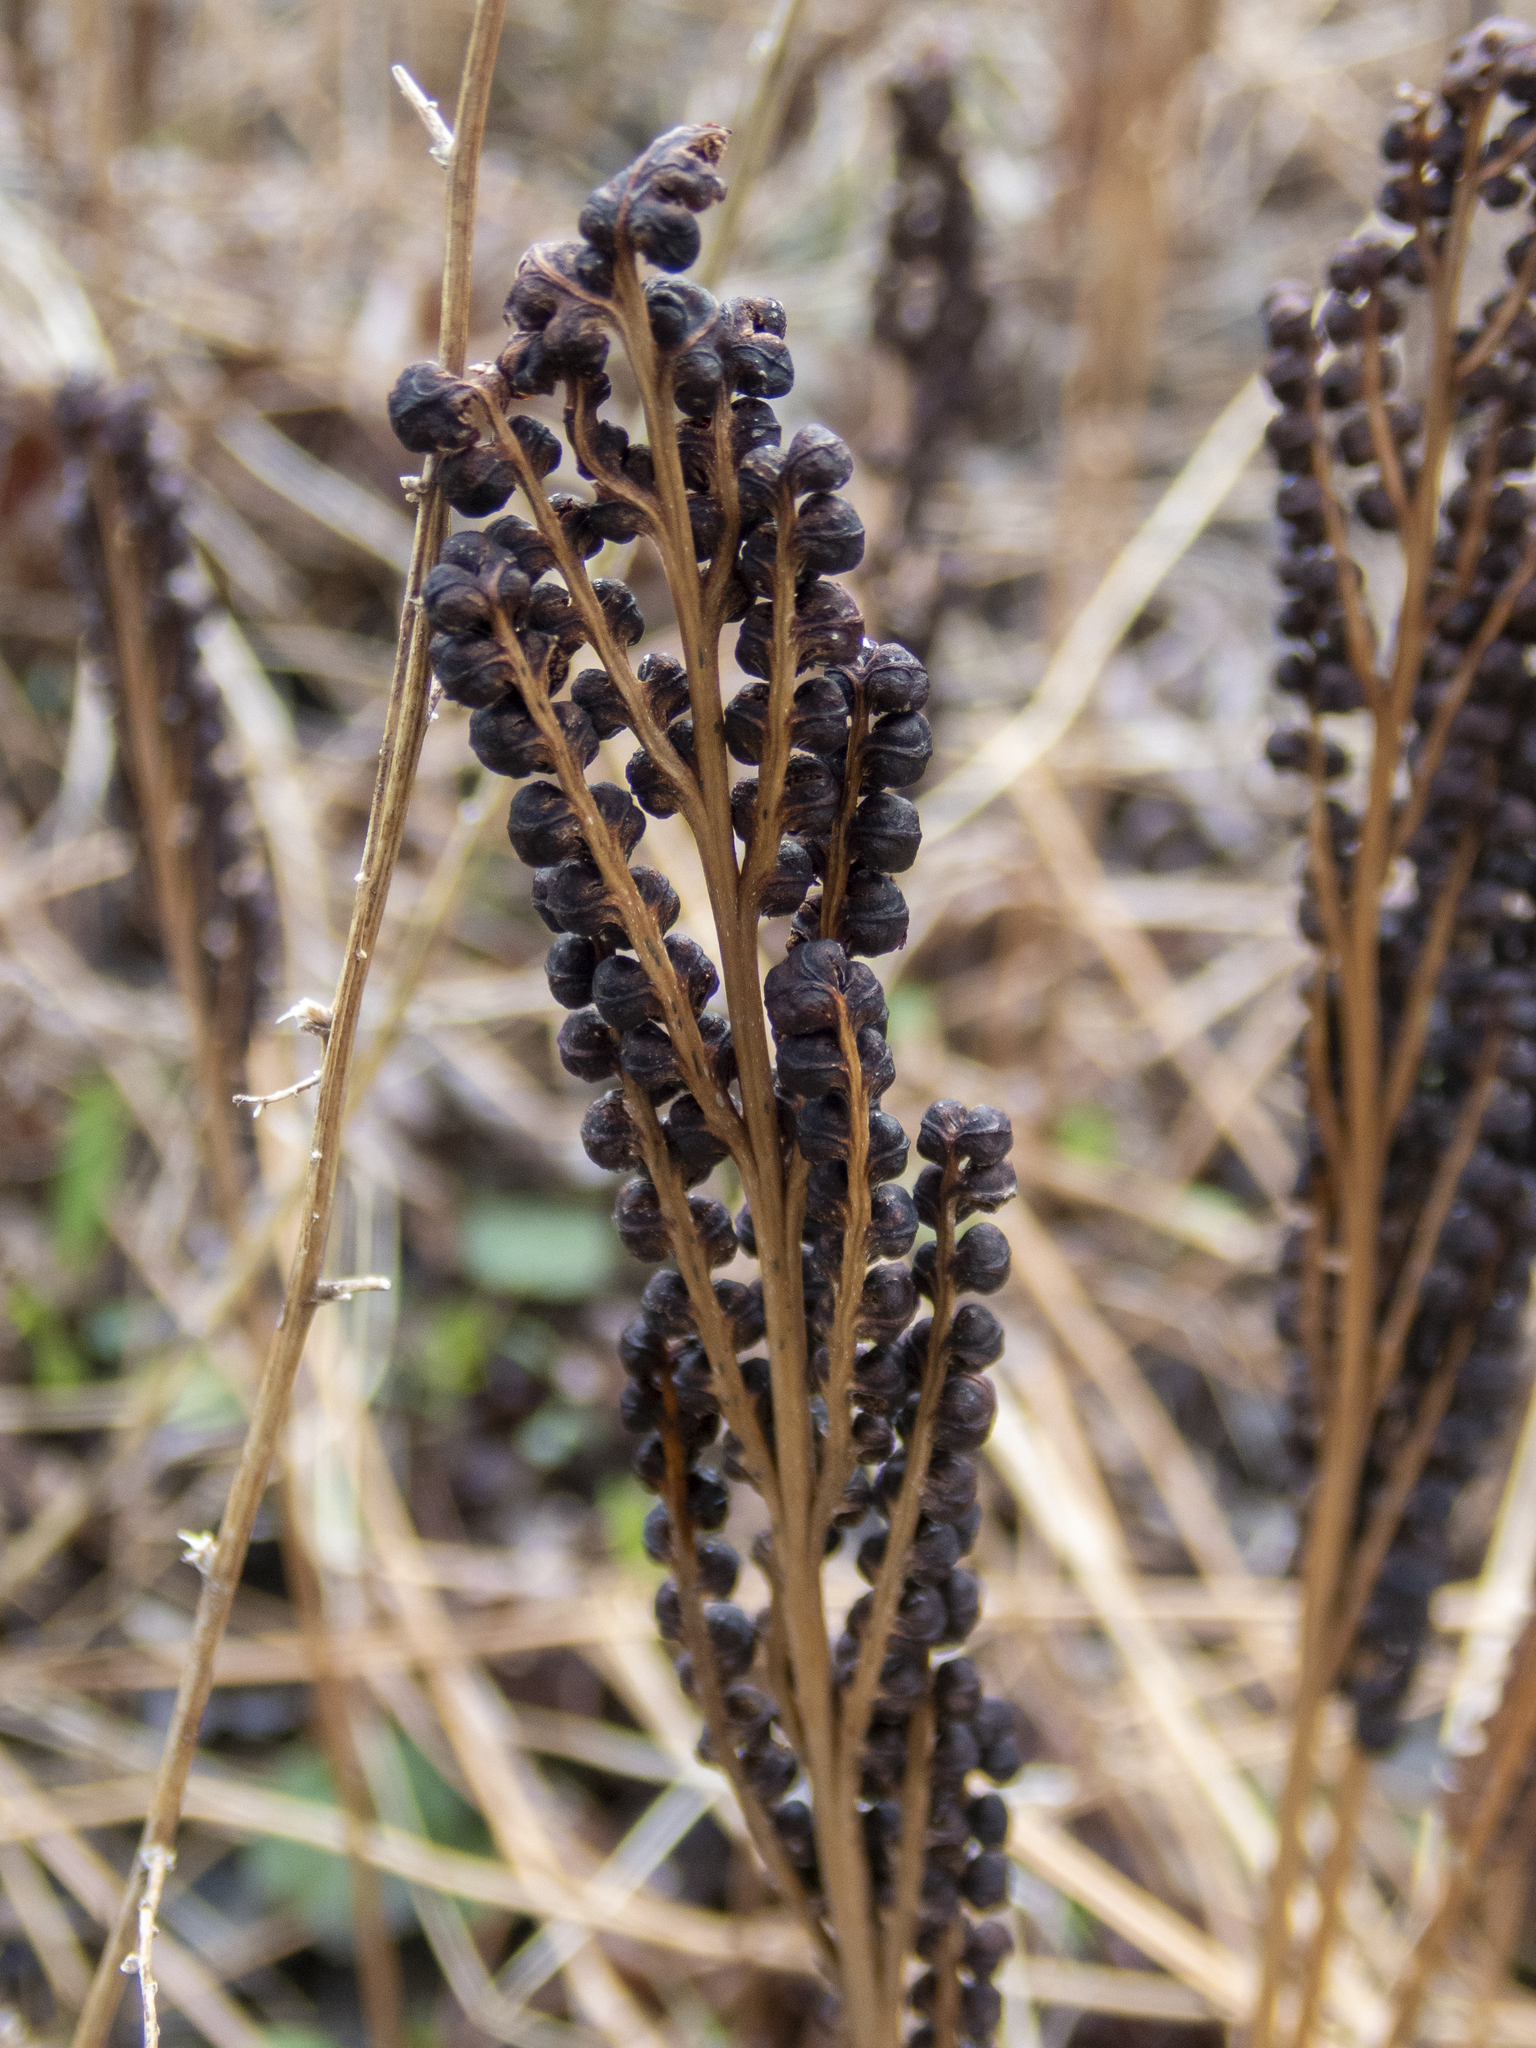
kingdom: Plantae
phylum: Tracheophyta
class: Polypodiopsida
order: Polypodiales
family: Onocleaceae
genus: Onoclea
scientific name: Onoclea sensibilis
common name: Sensitive fern
